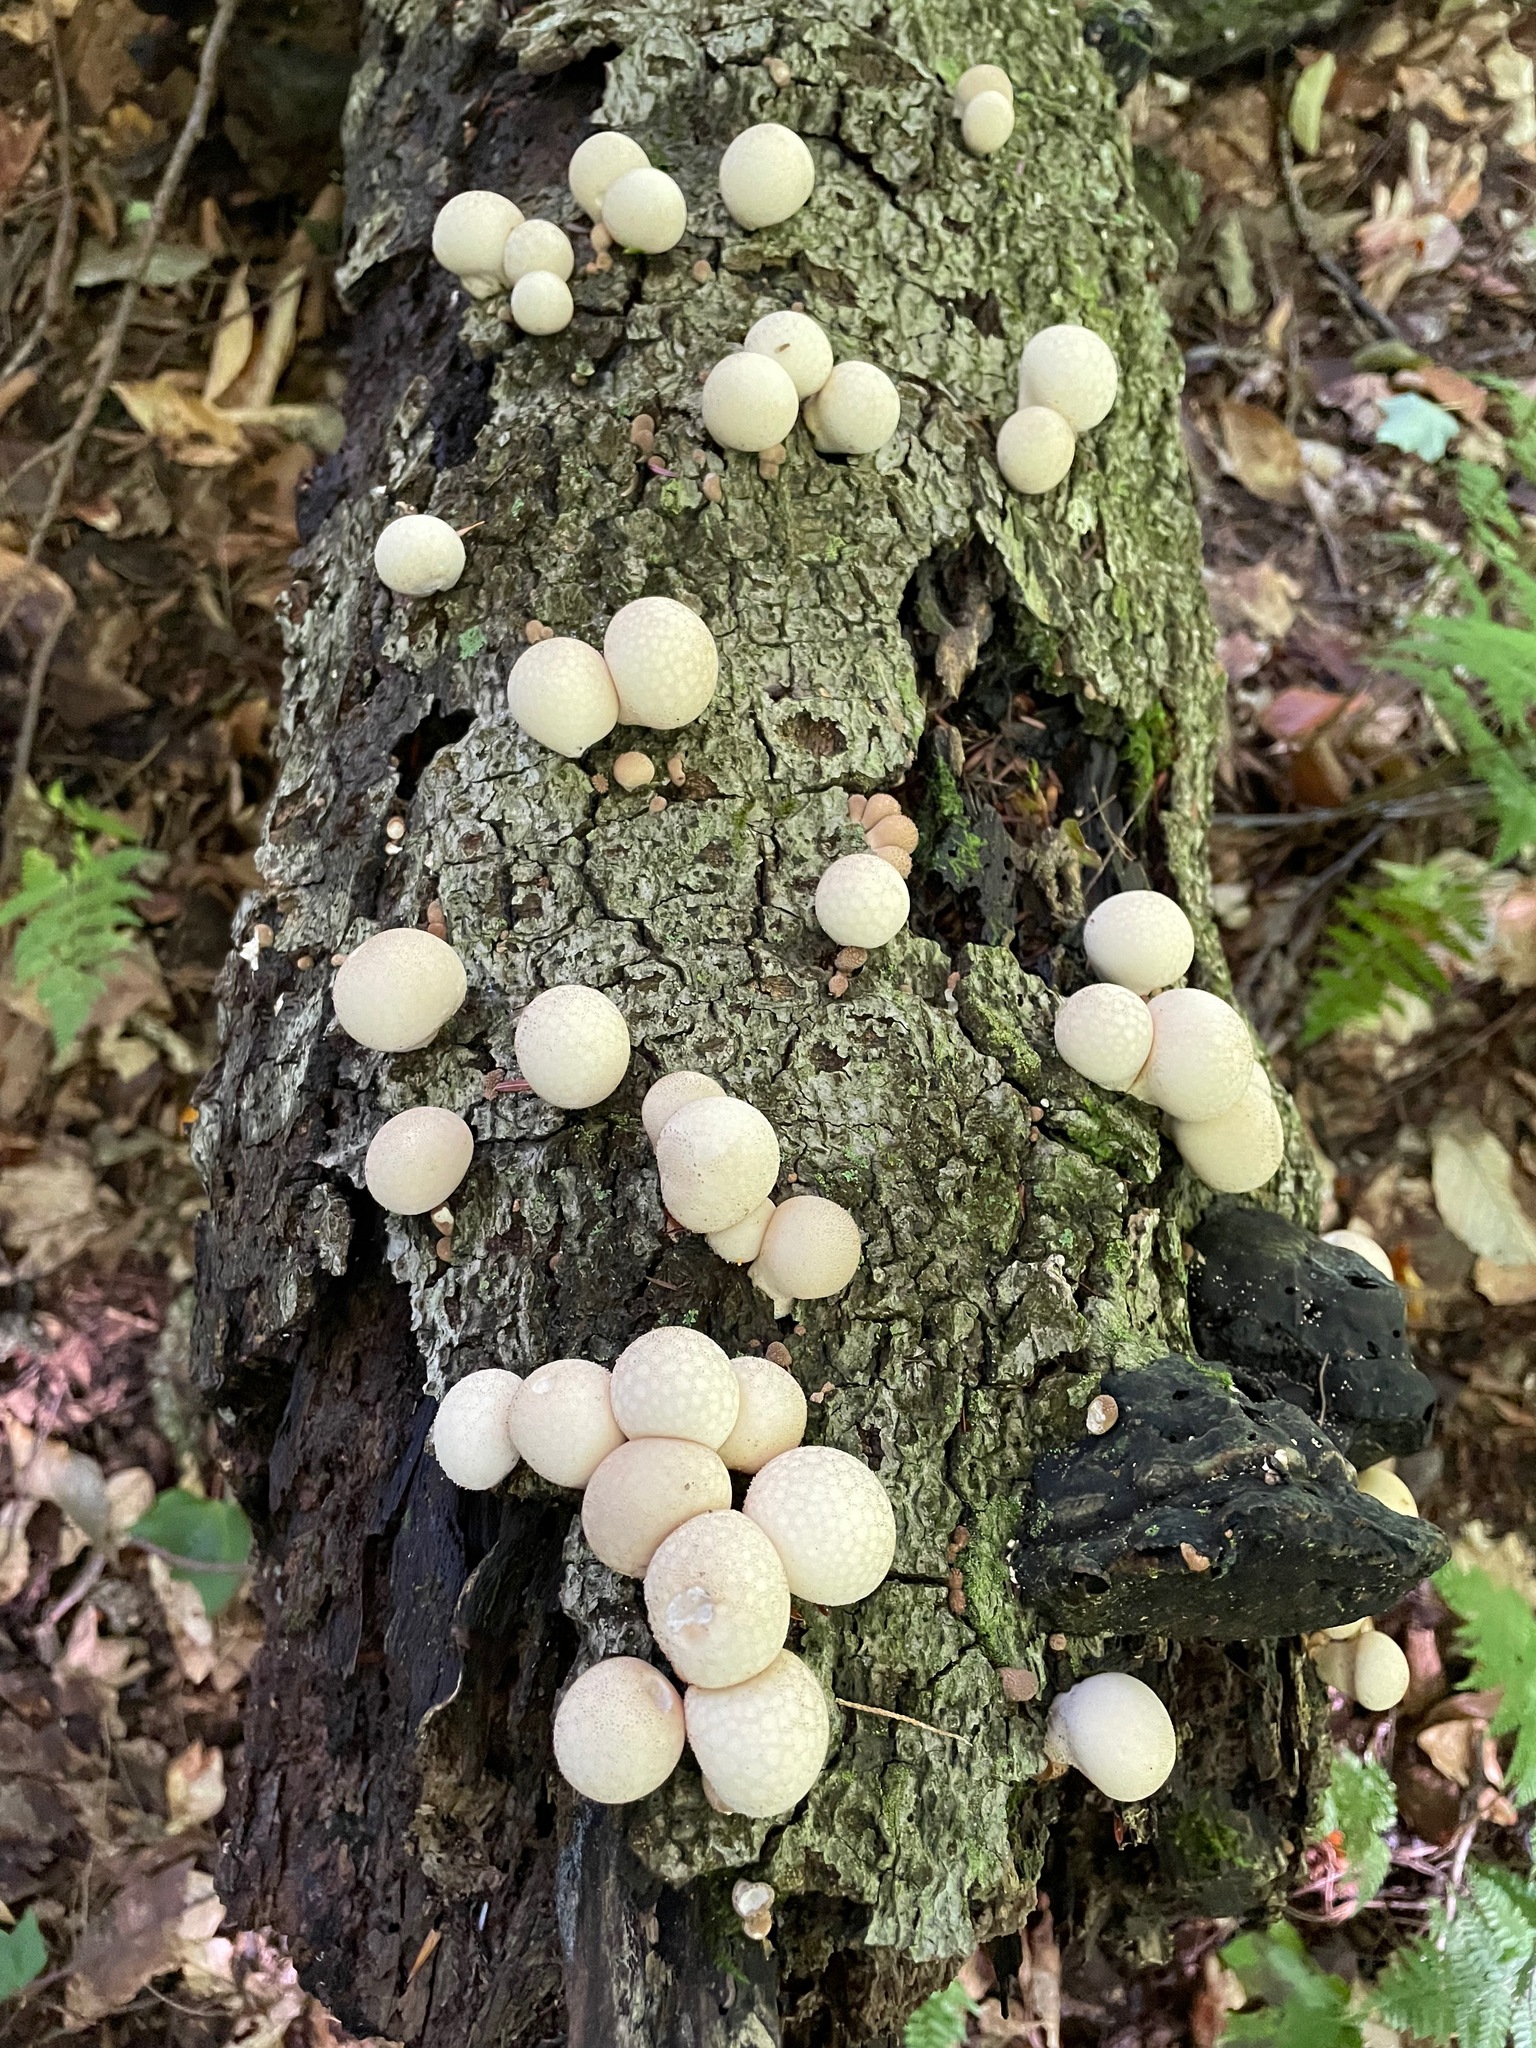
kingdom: Fungi
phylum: Basidiomycota
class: Agaricomycetes
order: Agaricales
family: Lycoperdaceae
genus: Apioperdon
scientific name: Apioperdon pyriforme
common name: Pear-shaped puffball
